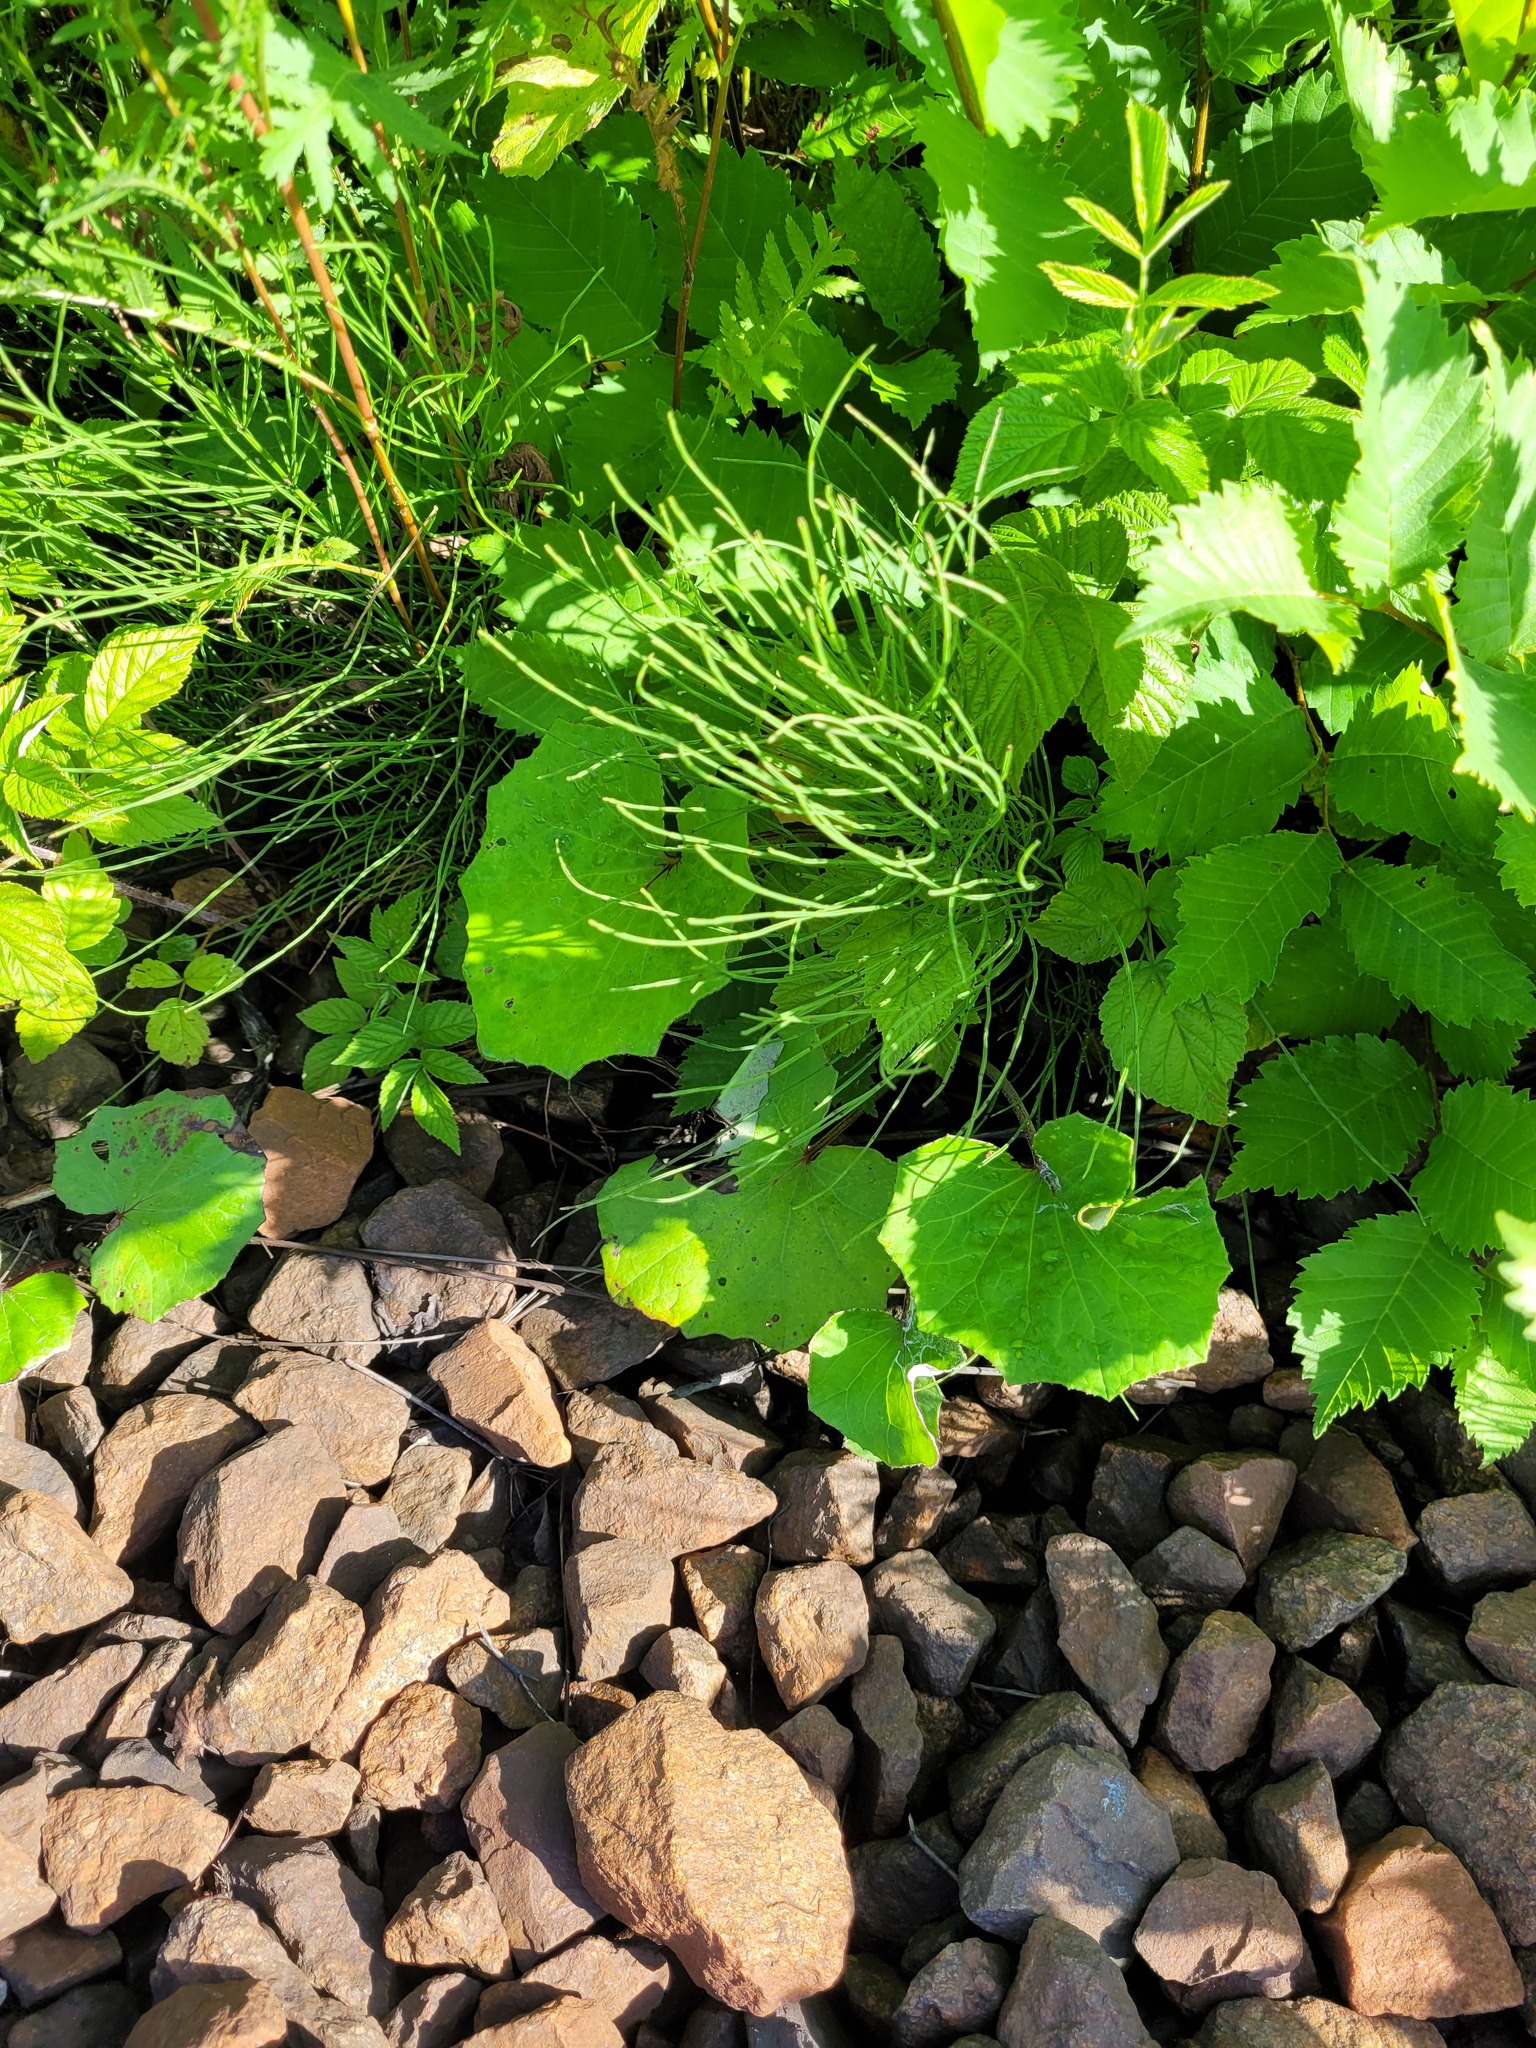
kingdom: Plantae
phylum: Tracheophyta
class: Magnoliopsida
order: Asterales
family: Asteraceae
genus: Tussilago
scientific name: Tussilago farfara
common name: Coltsfoot
